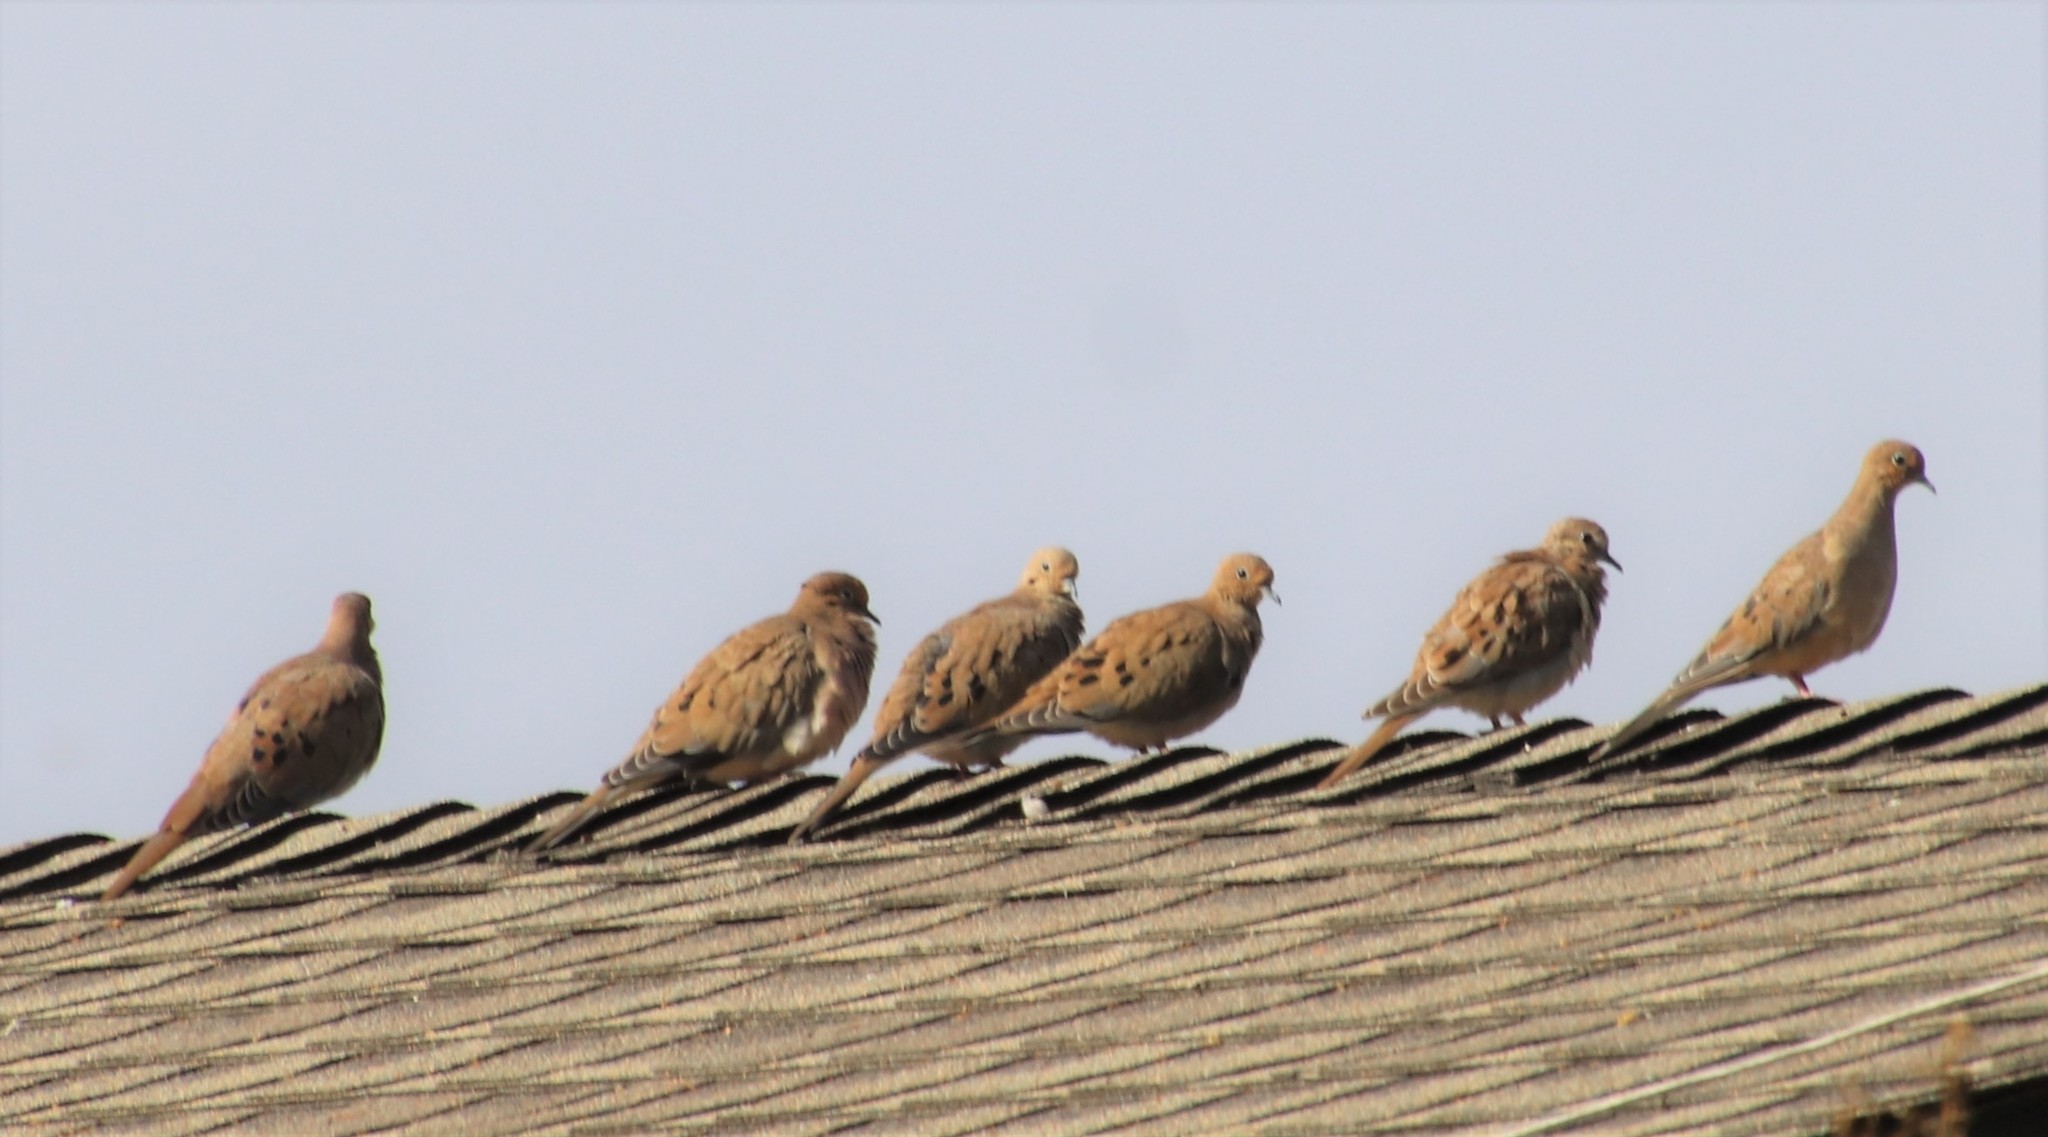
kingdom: Animalia
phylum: Chordata
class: Aves
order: Columbiformes
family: Columbidae
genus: Zenaida
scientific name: Zenaida macroura
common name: Mourning dove
